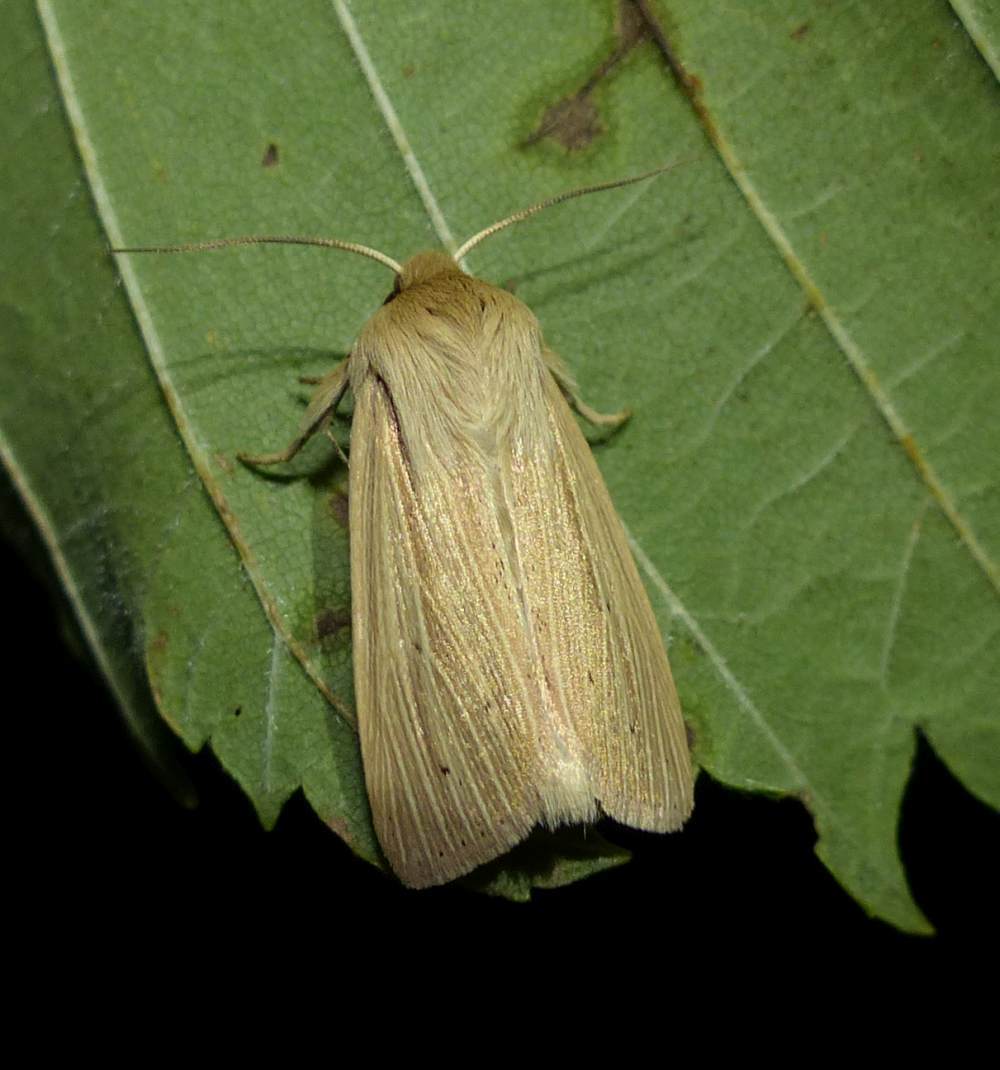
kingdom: Animalia
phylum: Arthropoda
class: Insecta
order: Lepidoptera
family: Noctuidae
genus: Mythimna
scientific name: Mythimna oxygala
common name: Lesser wainscot
